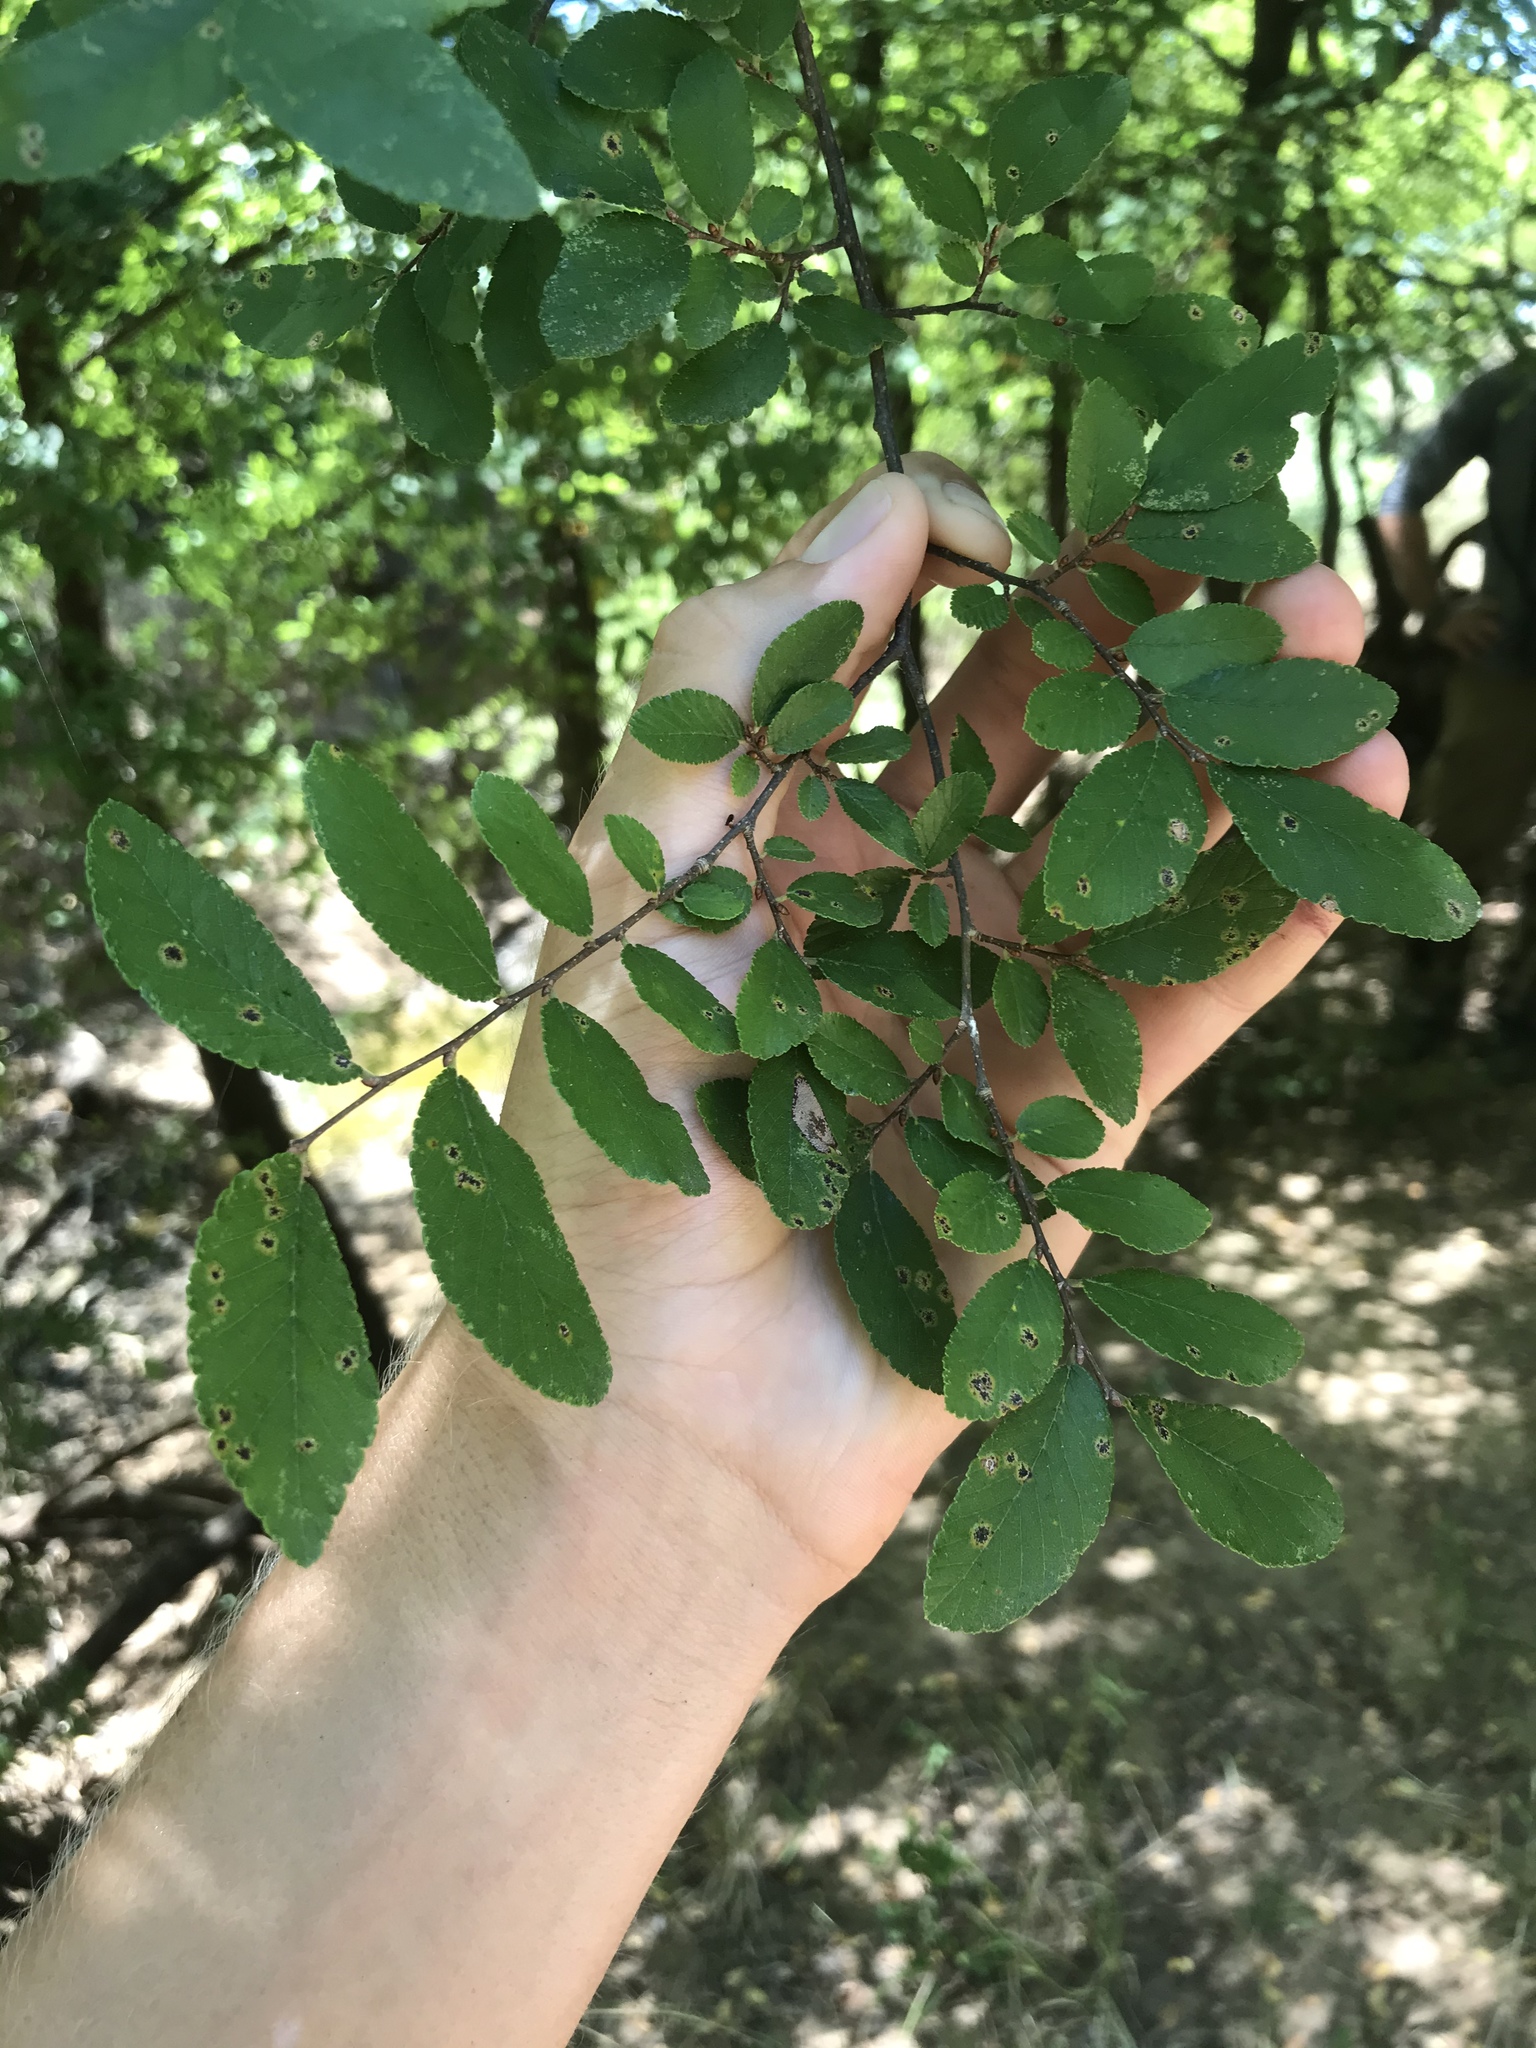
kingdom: Plantae
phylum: Tracheophyta
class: Magnoliopsida
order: Rosales
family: Ulmaceae
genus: Ulmus
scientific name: Ulmus crassifolia
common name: Basket elm
